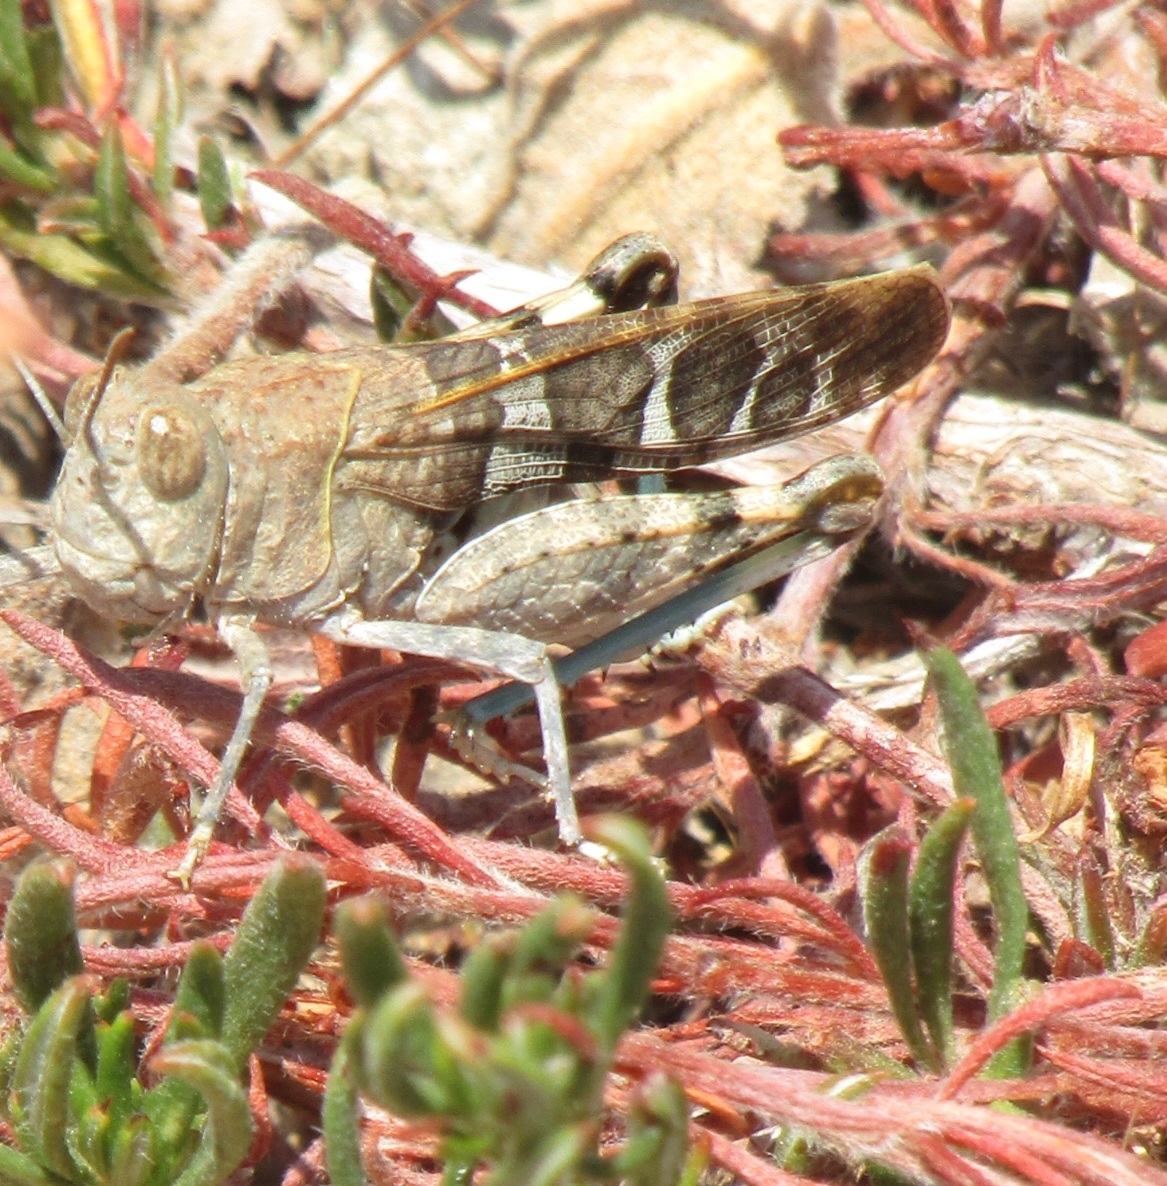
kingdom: Animalia
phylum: Arthropoda
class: Insecta
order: Orthoptera
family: Acrididae
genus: Leprus
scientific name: Leprus intermedius
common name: Saussure's blue-winged grasshopper
